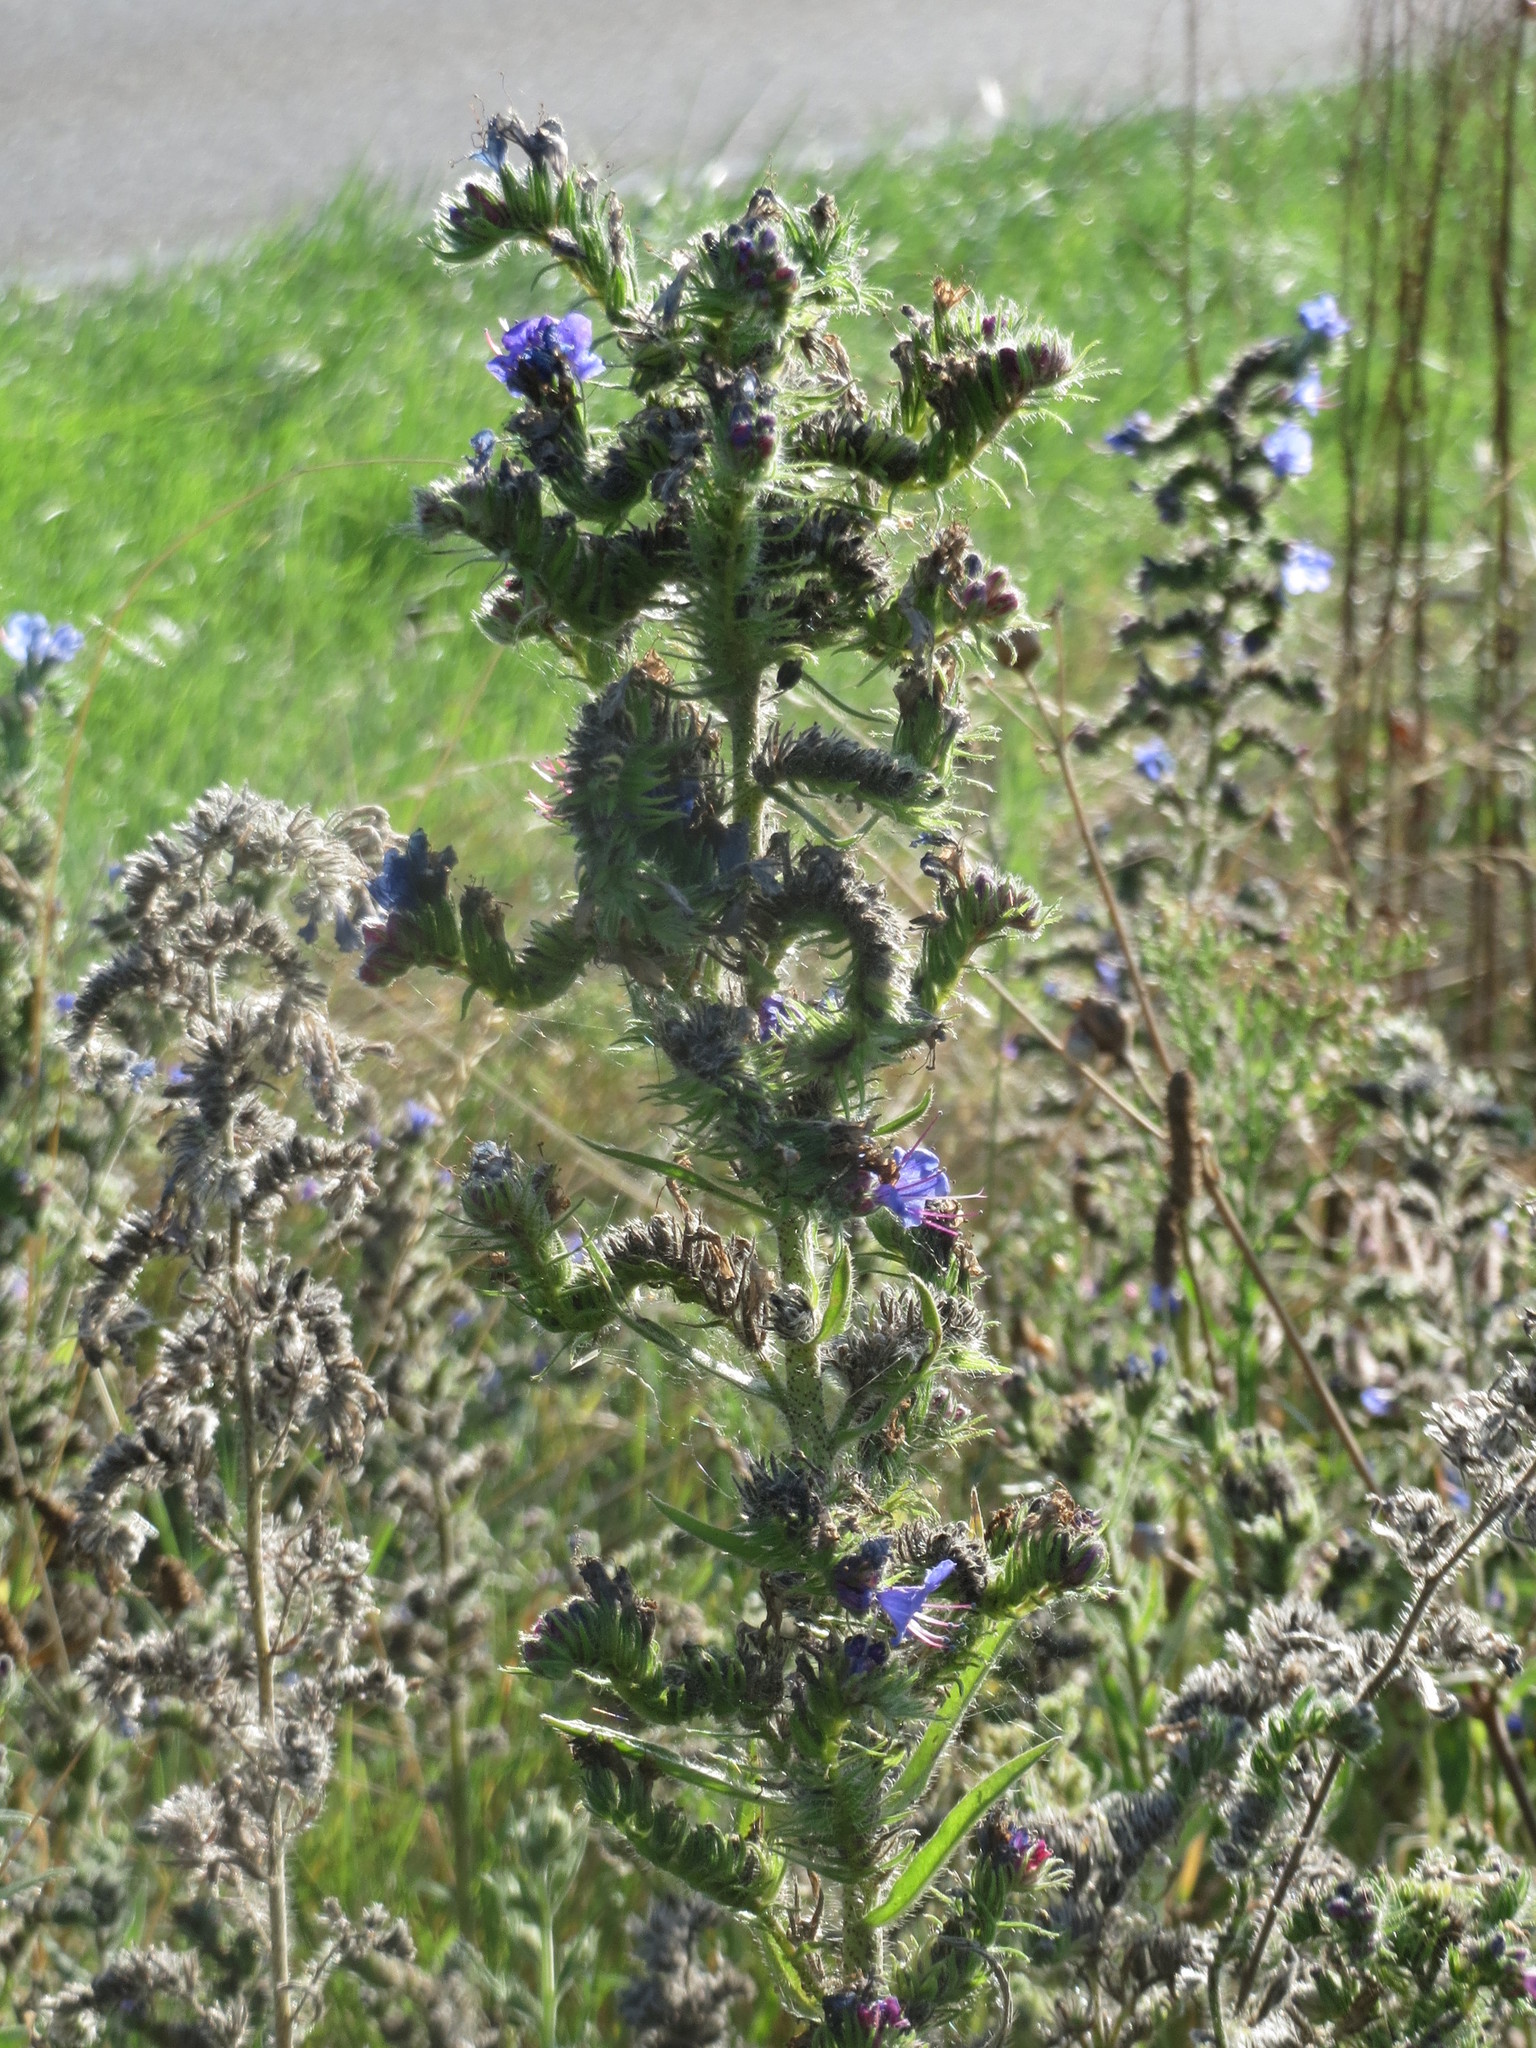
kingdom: Plantae
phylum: Tracheophyta
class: Magnoliopsida
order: Boraginales
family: Boraginaceae
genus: Echium
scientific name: Echium vulgare
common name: Common viper's bugloss
